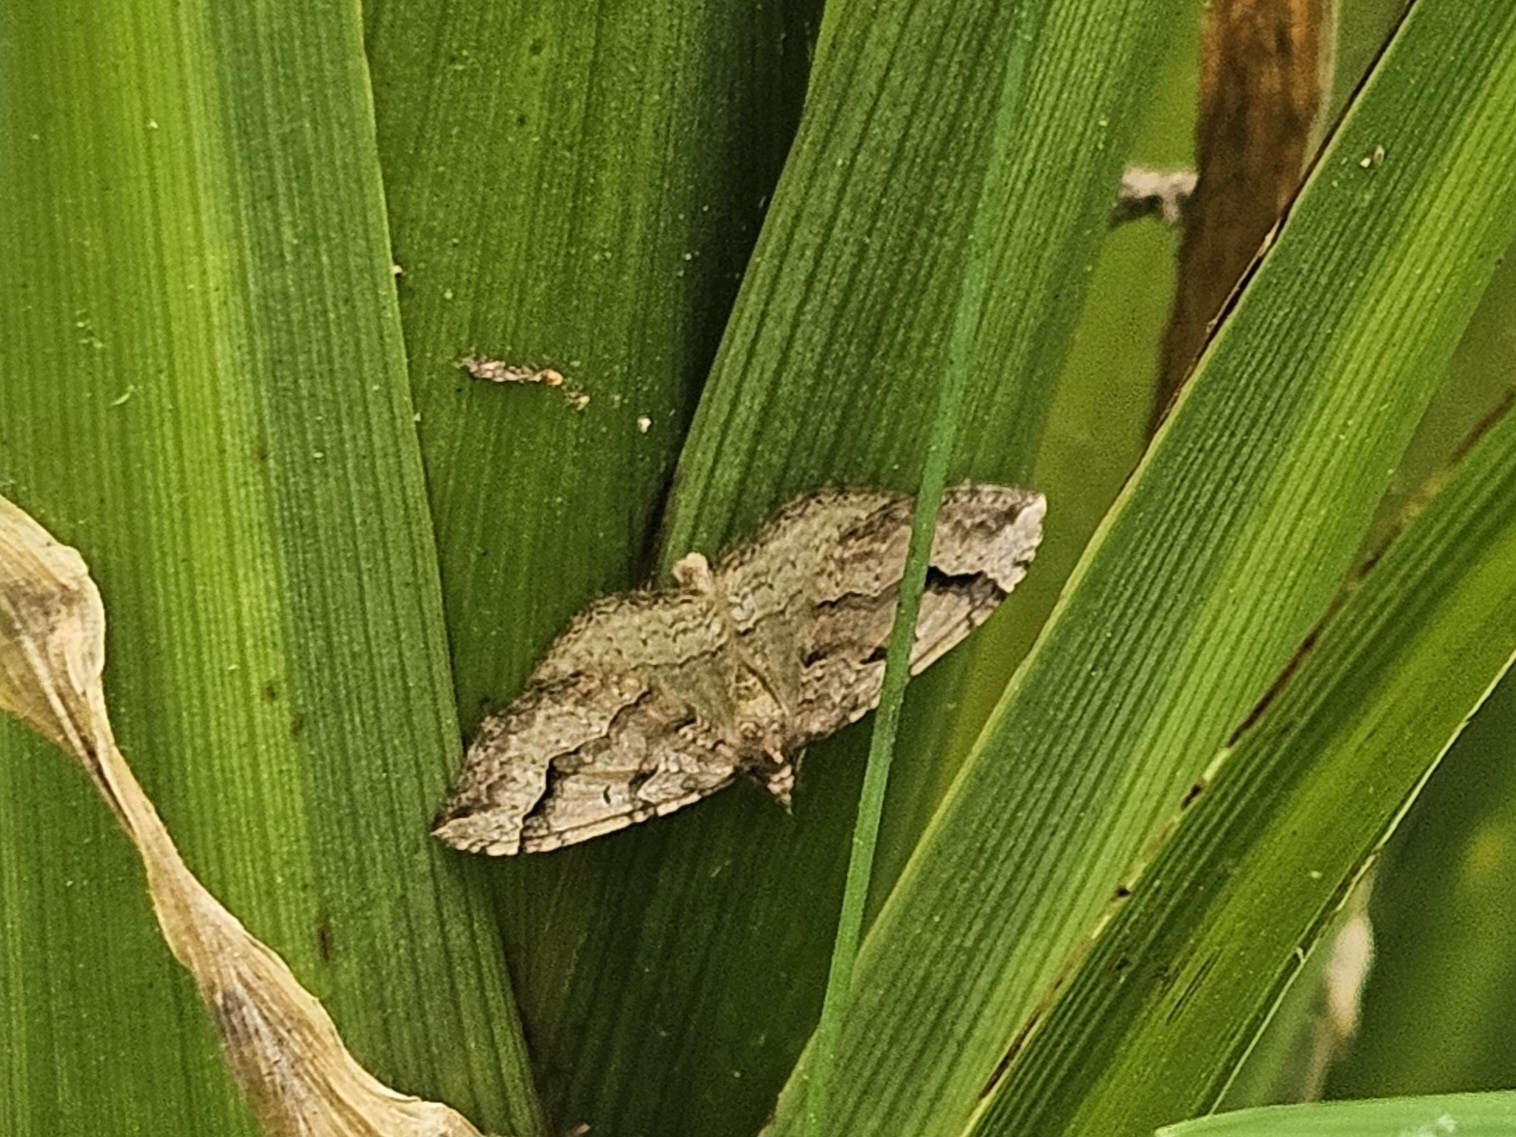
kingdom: Animalia
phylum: Arthropoda
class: Insecta
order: Lepidoptera
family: Geometridae
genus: Epyaxa
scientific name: Epyaxa rosearia
